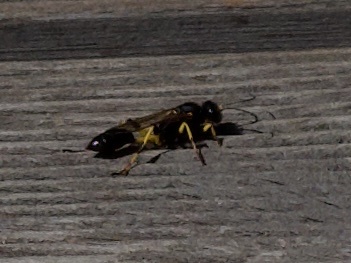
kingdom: Animalia
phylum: Arthropoda
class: Insecta
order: Hymenoptera
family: Sphecidae
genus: Sceliphron
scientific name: Sceliphron destillatorium
